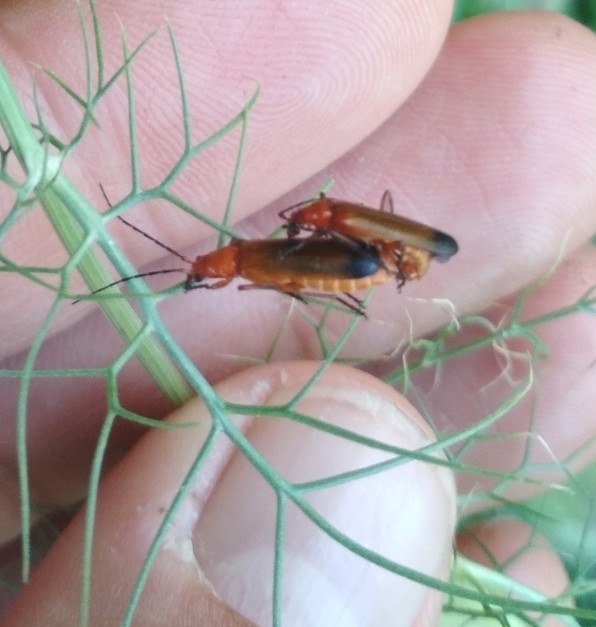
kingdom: Animalia
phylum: Arthropoda
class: Insecta
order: Coleoptera
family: Cantharidae
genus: Rhagonycha
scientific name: Rhagonycha fulva
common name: Common red soldier beetle
